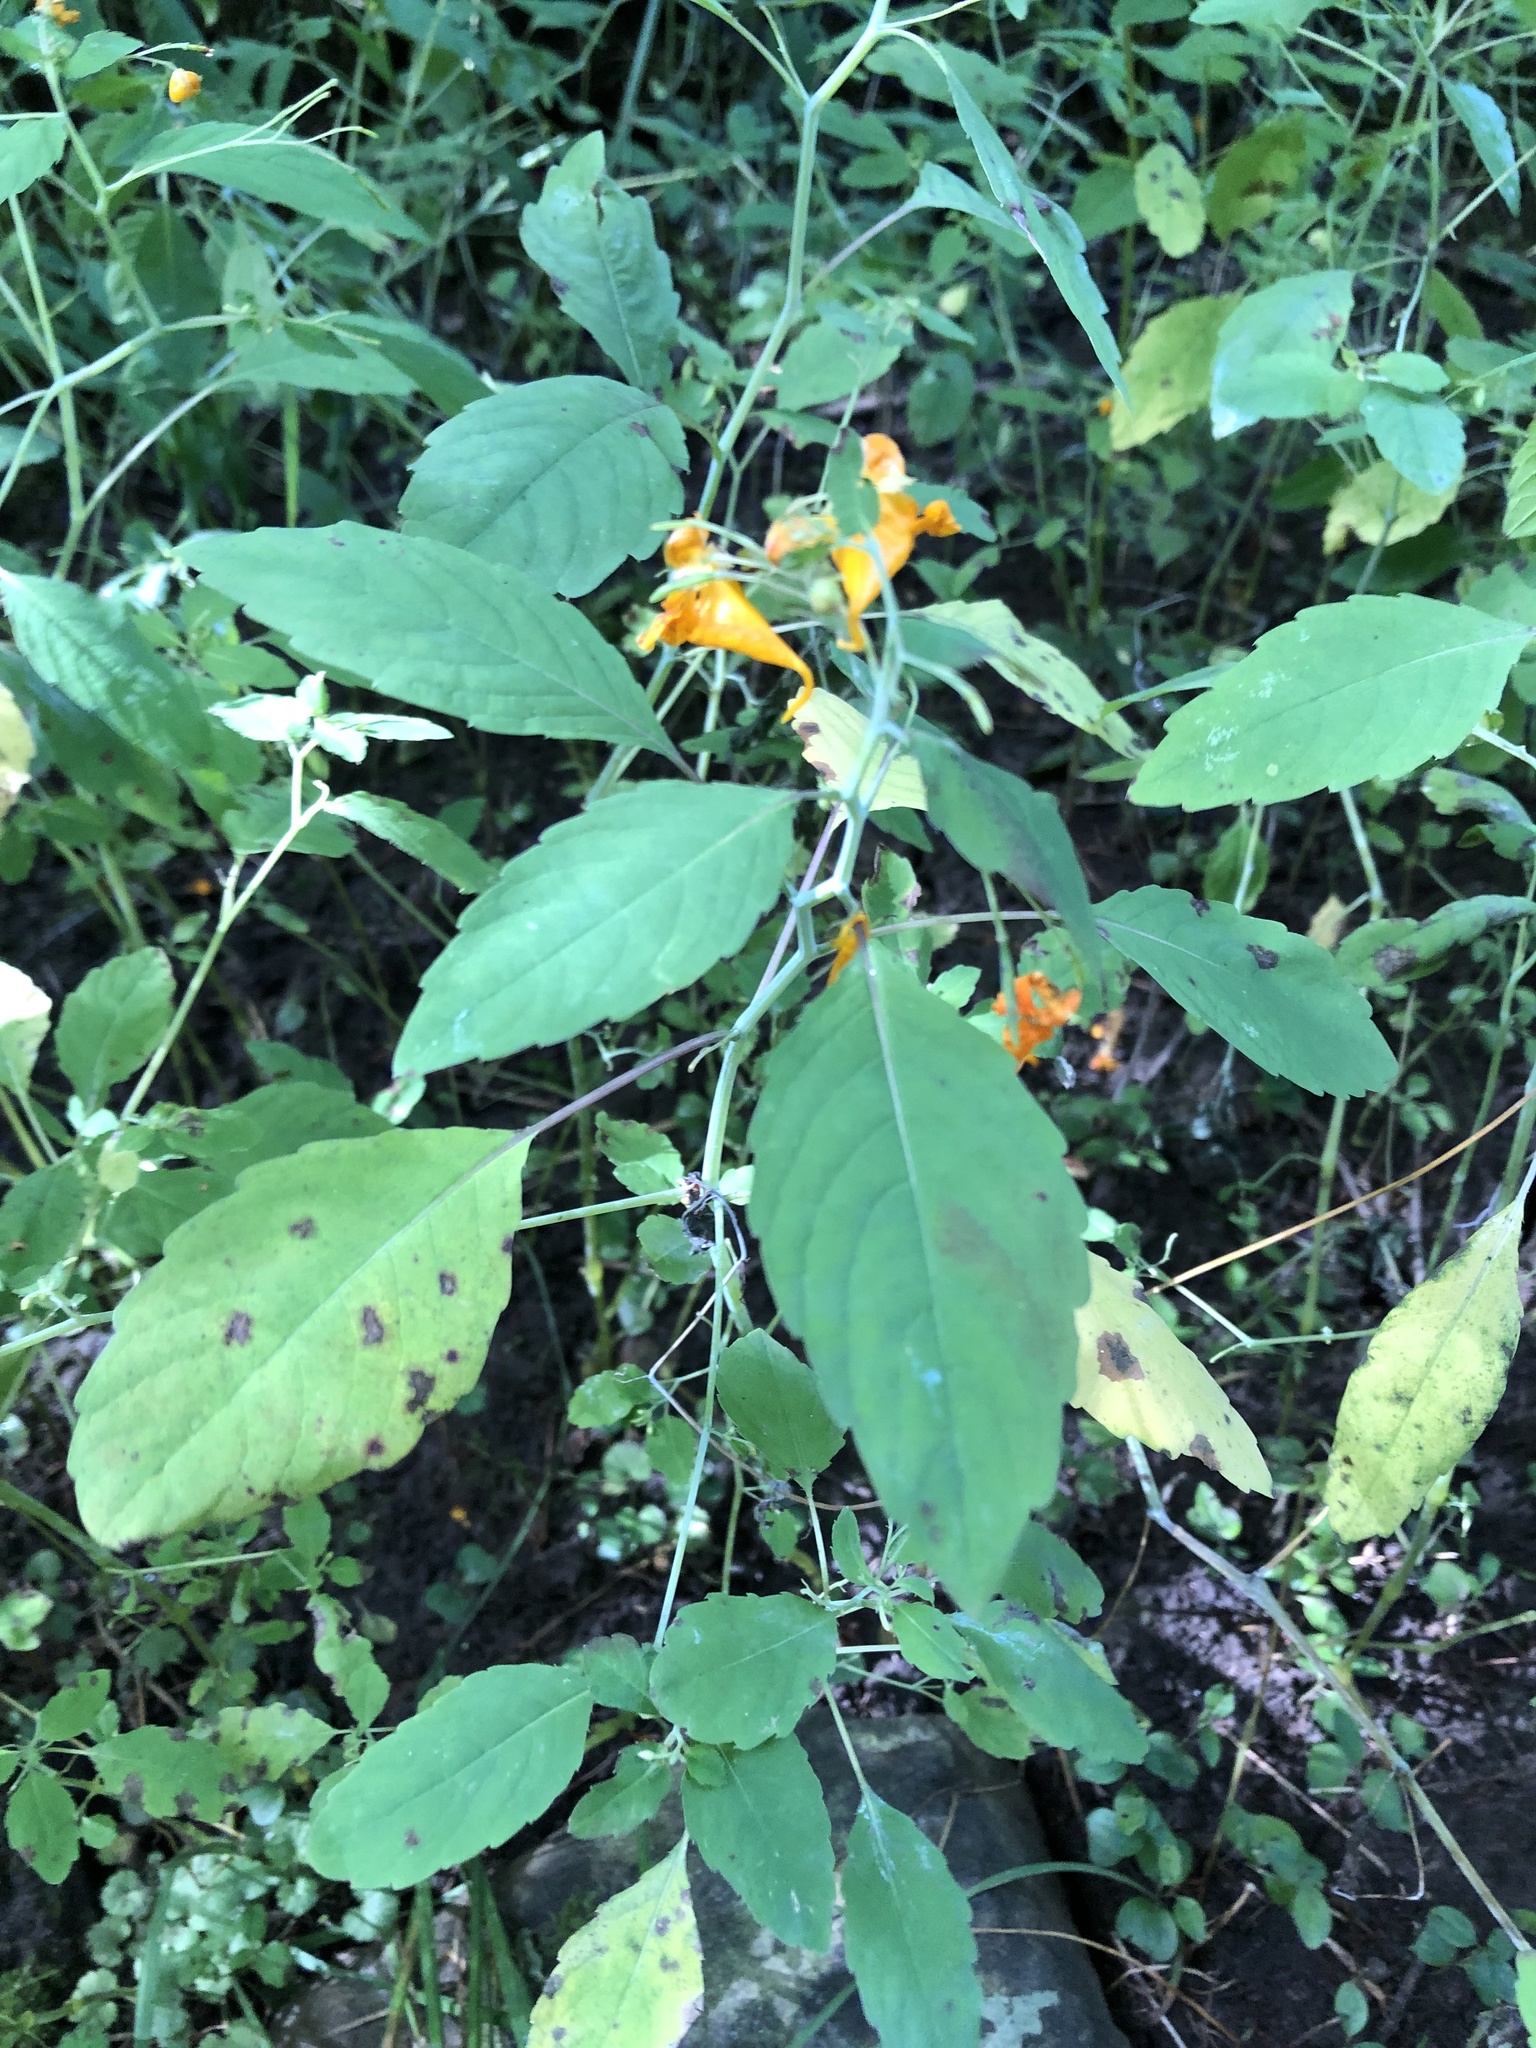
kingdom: Plantae
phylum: Tracheophyta
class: Magnoliopsida
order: Ericales
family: Balsaminaceae
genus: Impatiens
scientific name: Impatiens capensis
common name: Orange balsam
